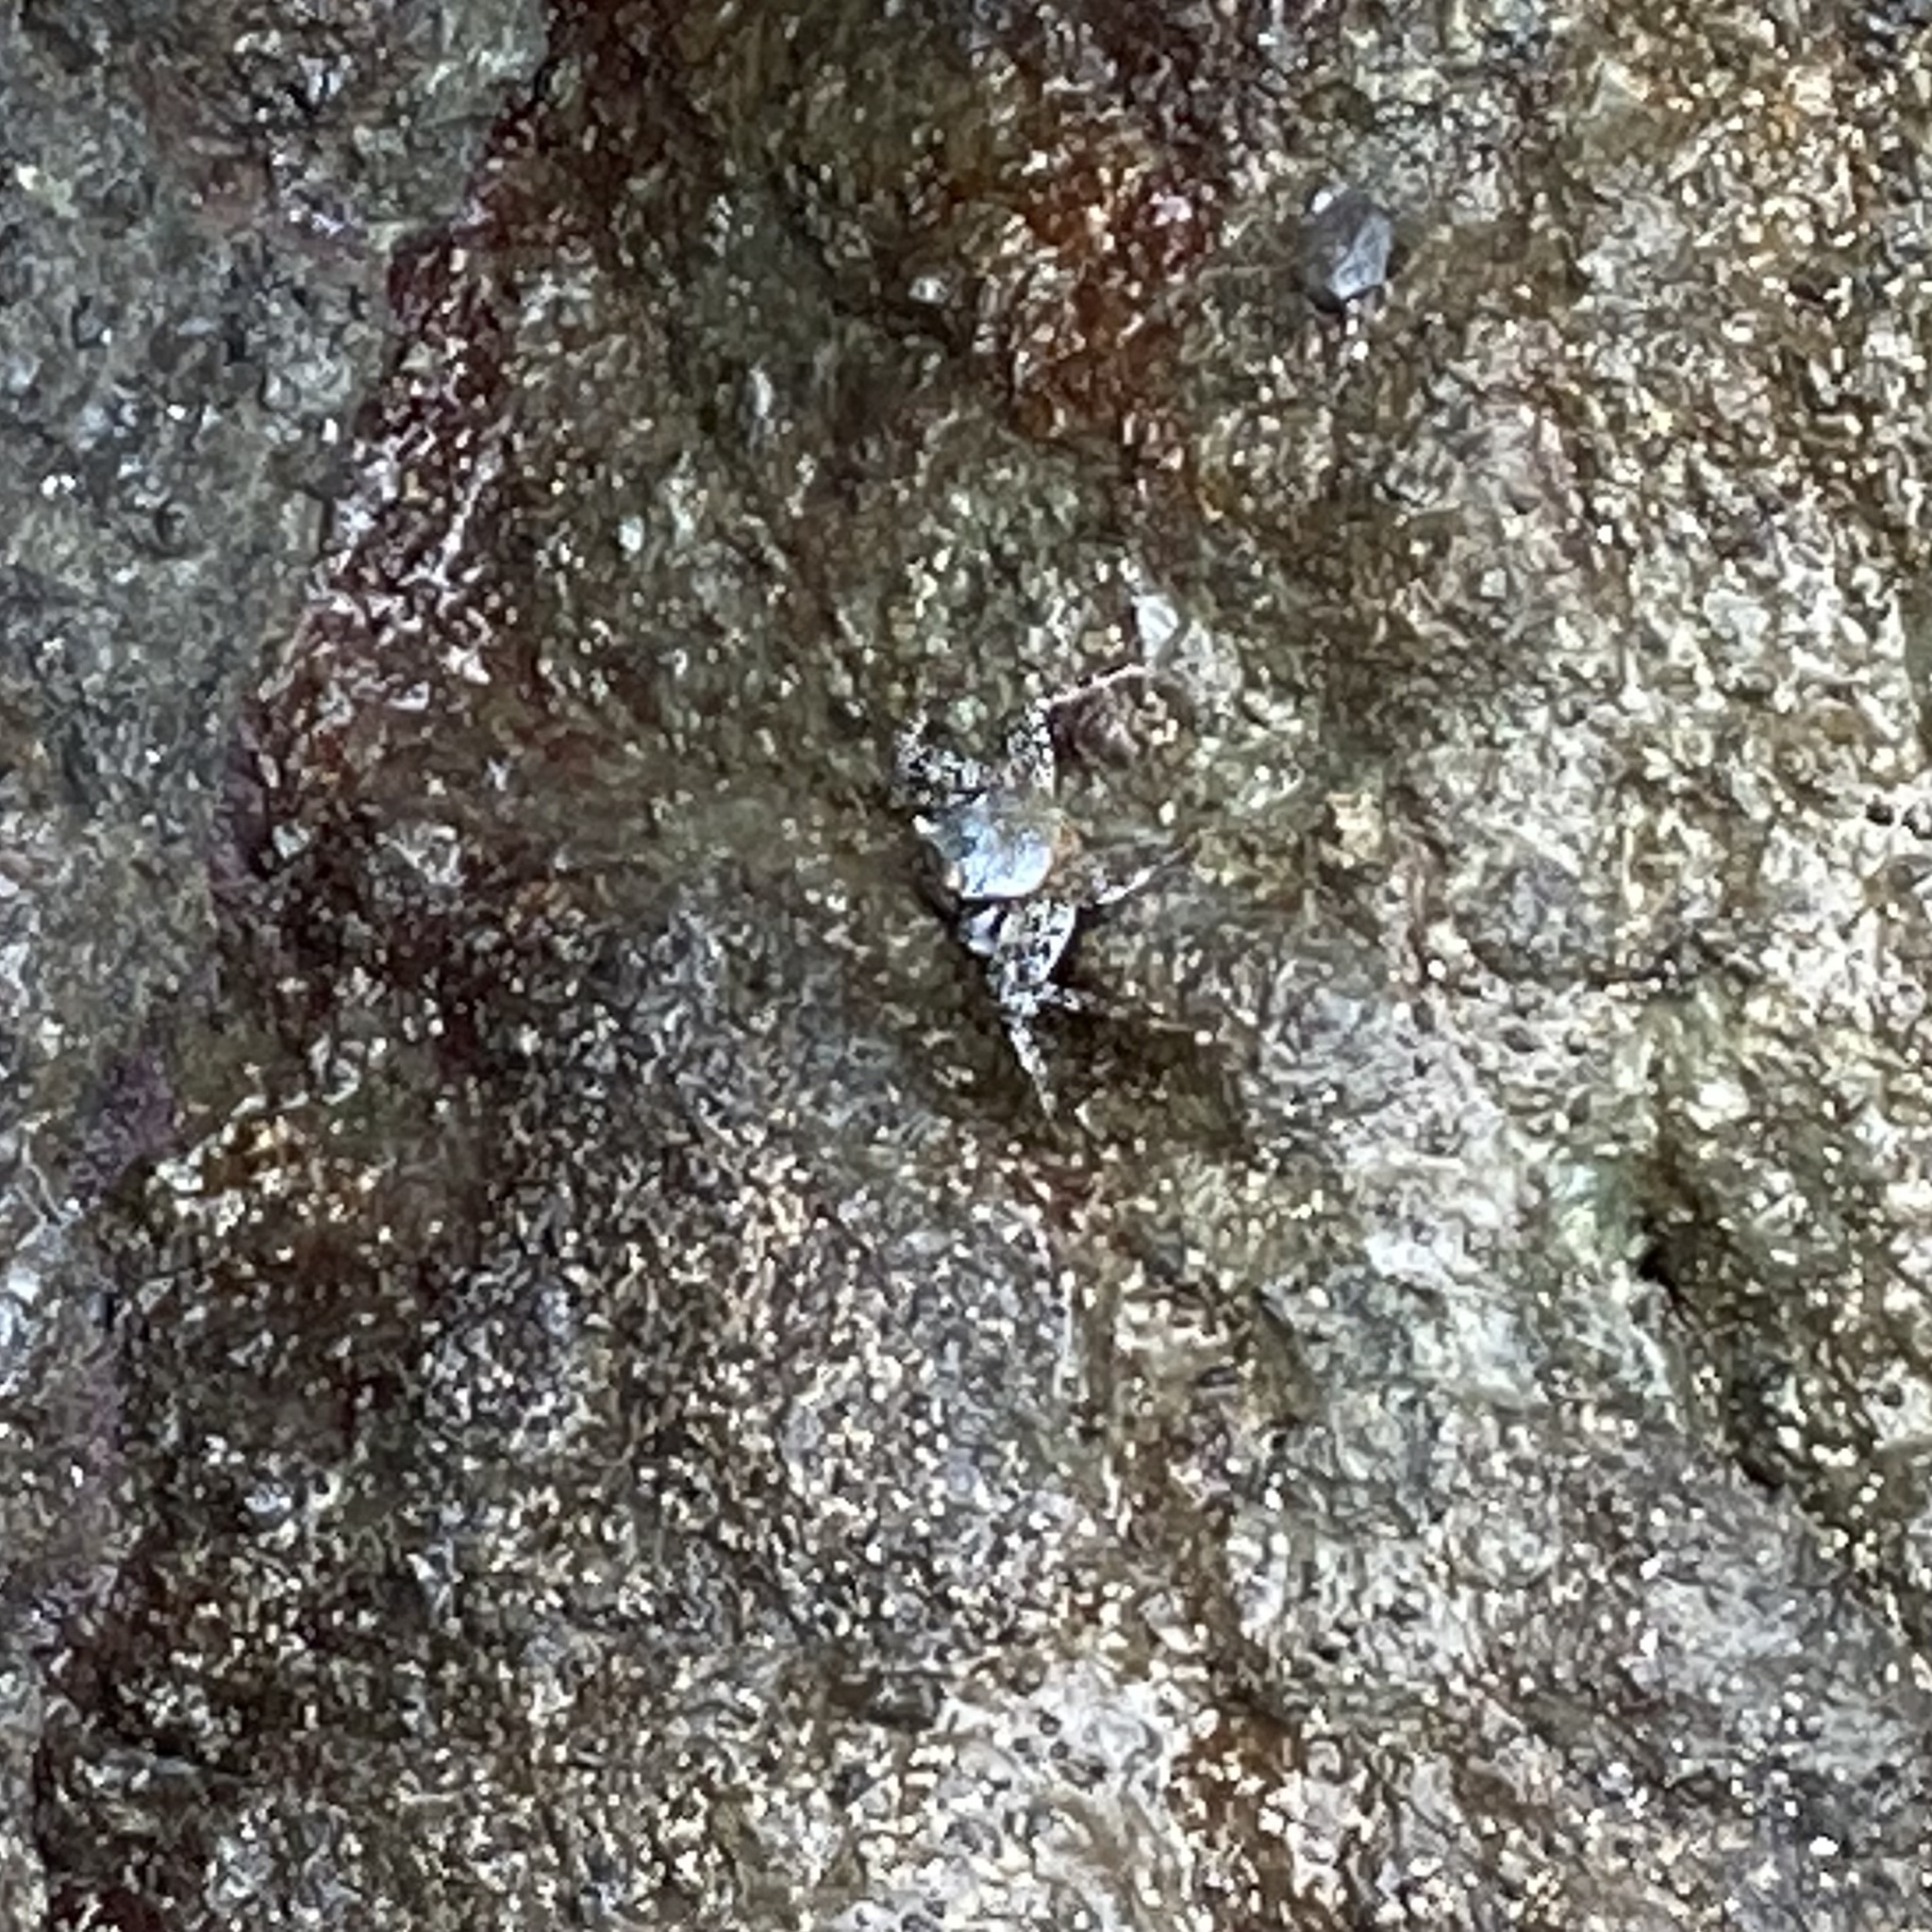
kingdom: Animalia
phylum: Arthropoda
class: Malacostraca
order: Decapoda
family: Grapsidae
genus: Grapsus
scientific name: Grapsus grapsus
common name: Sally lightfoot
